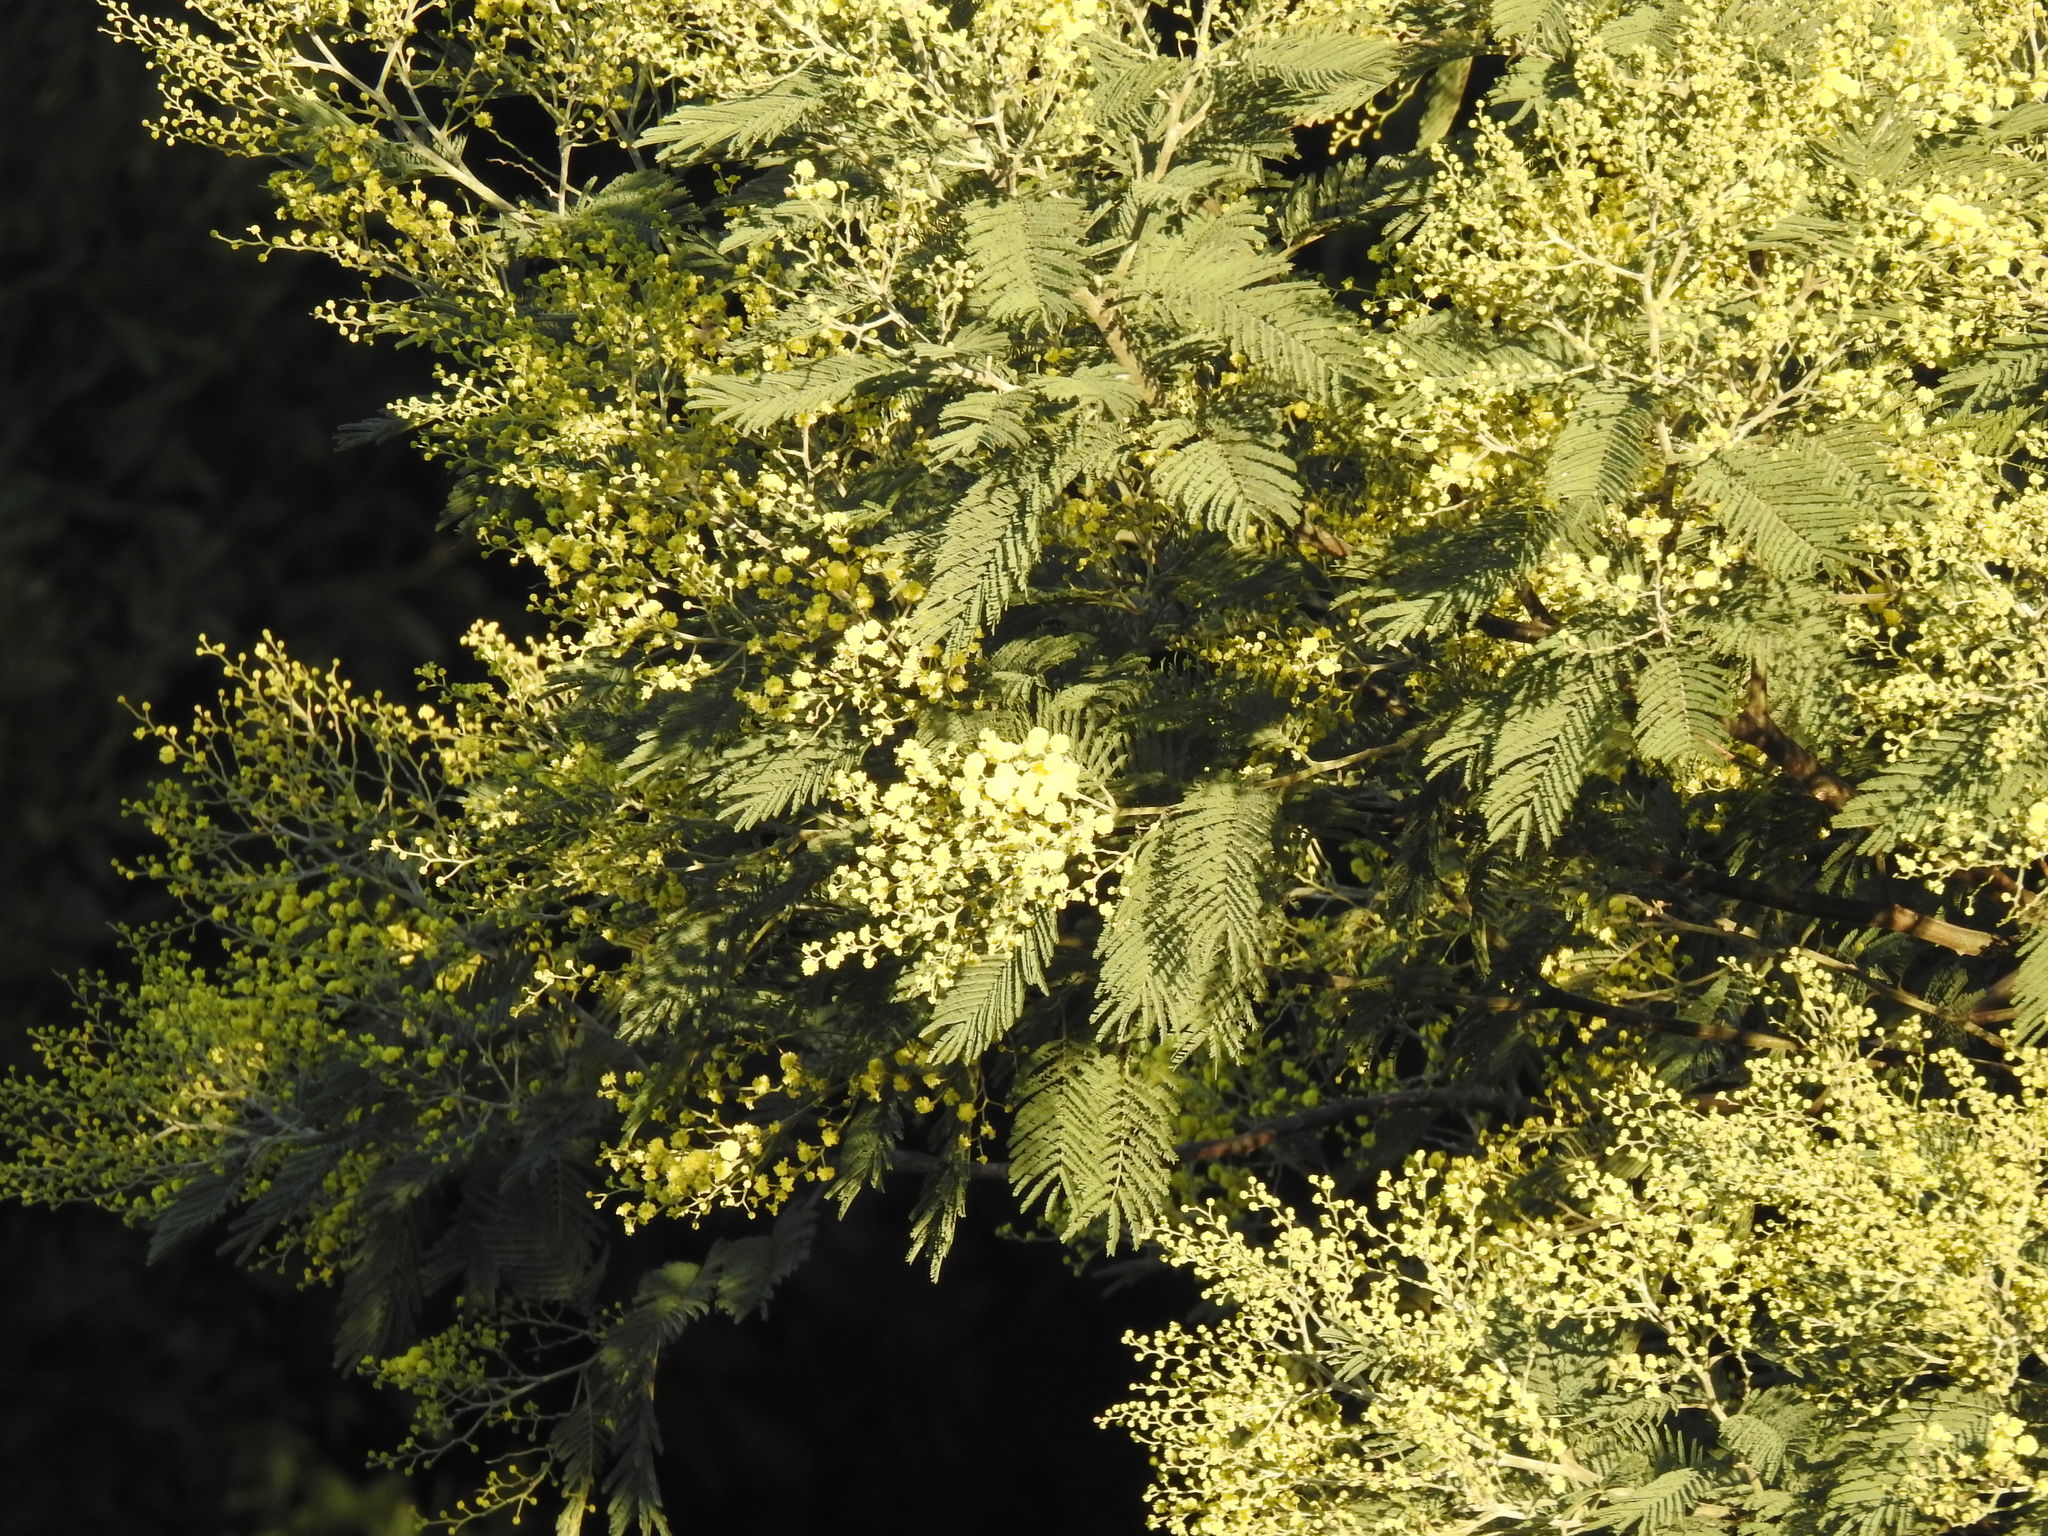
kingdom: Plantae
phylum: Tracheophyta
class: Magnoliopsida
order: Fabales
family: Fabaceae
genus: Acacia
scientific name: Acacia dealbata
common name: Silver wattle
